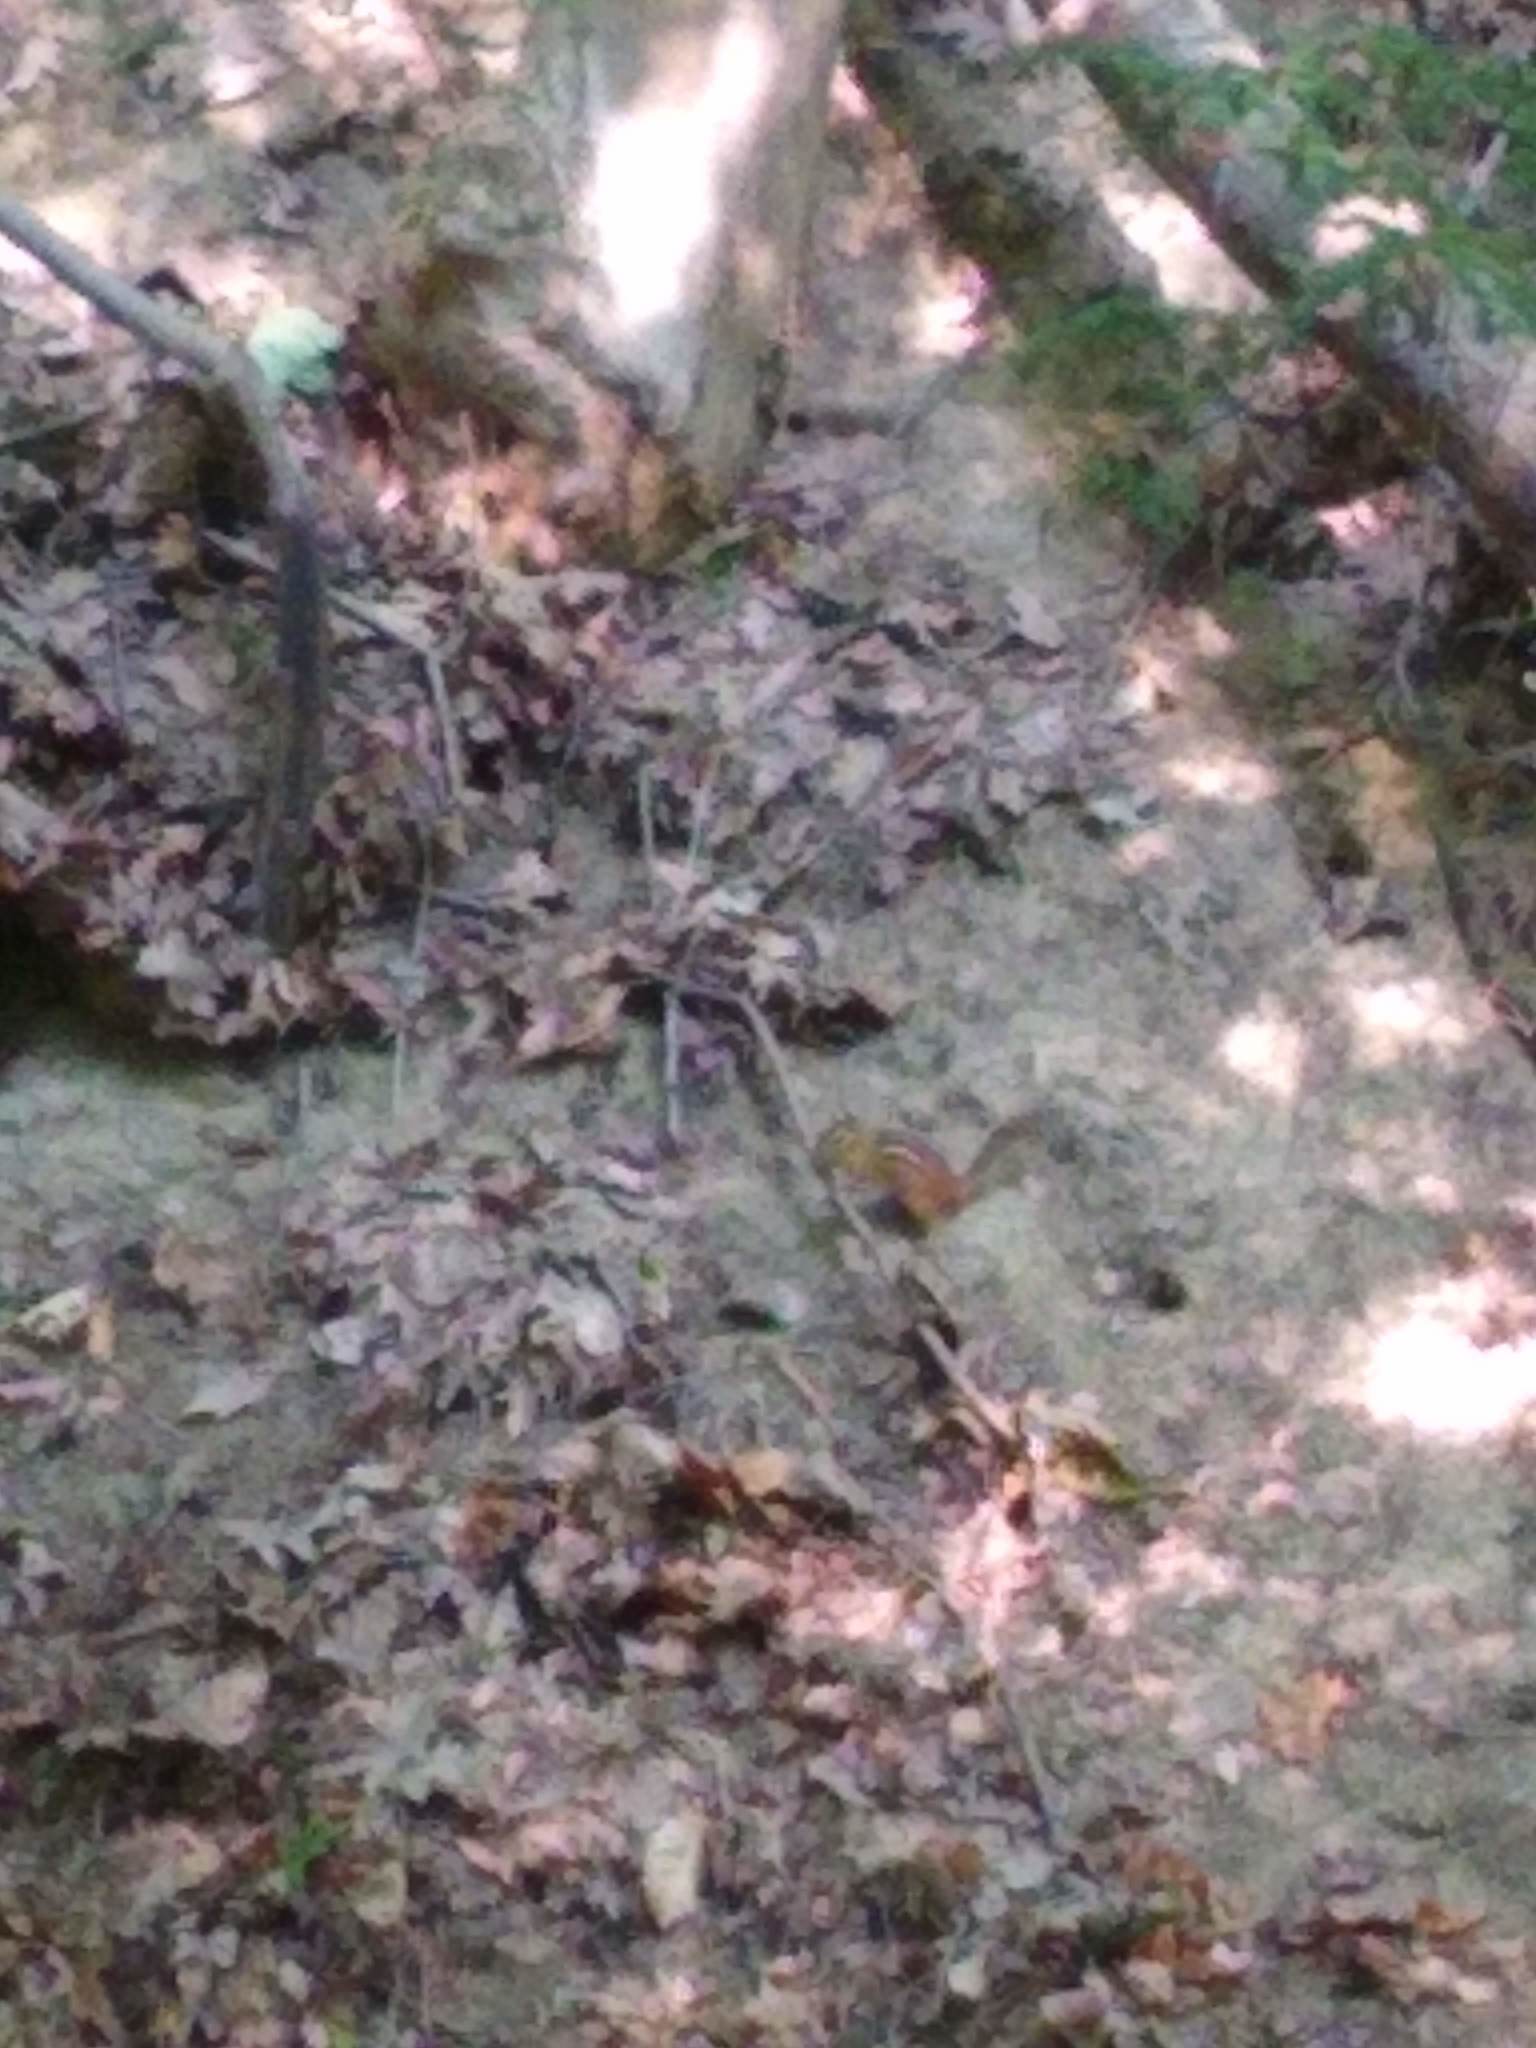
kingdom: Animalia
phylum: Chordata
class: Mammalia
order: Rodentia
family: Sciuridae
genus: Tamias
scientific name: Tamias striatus
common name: Eastern chipmunk
